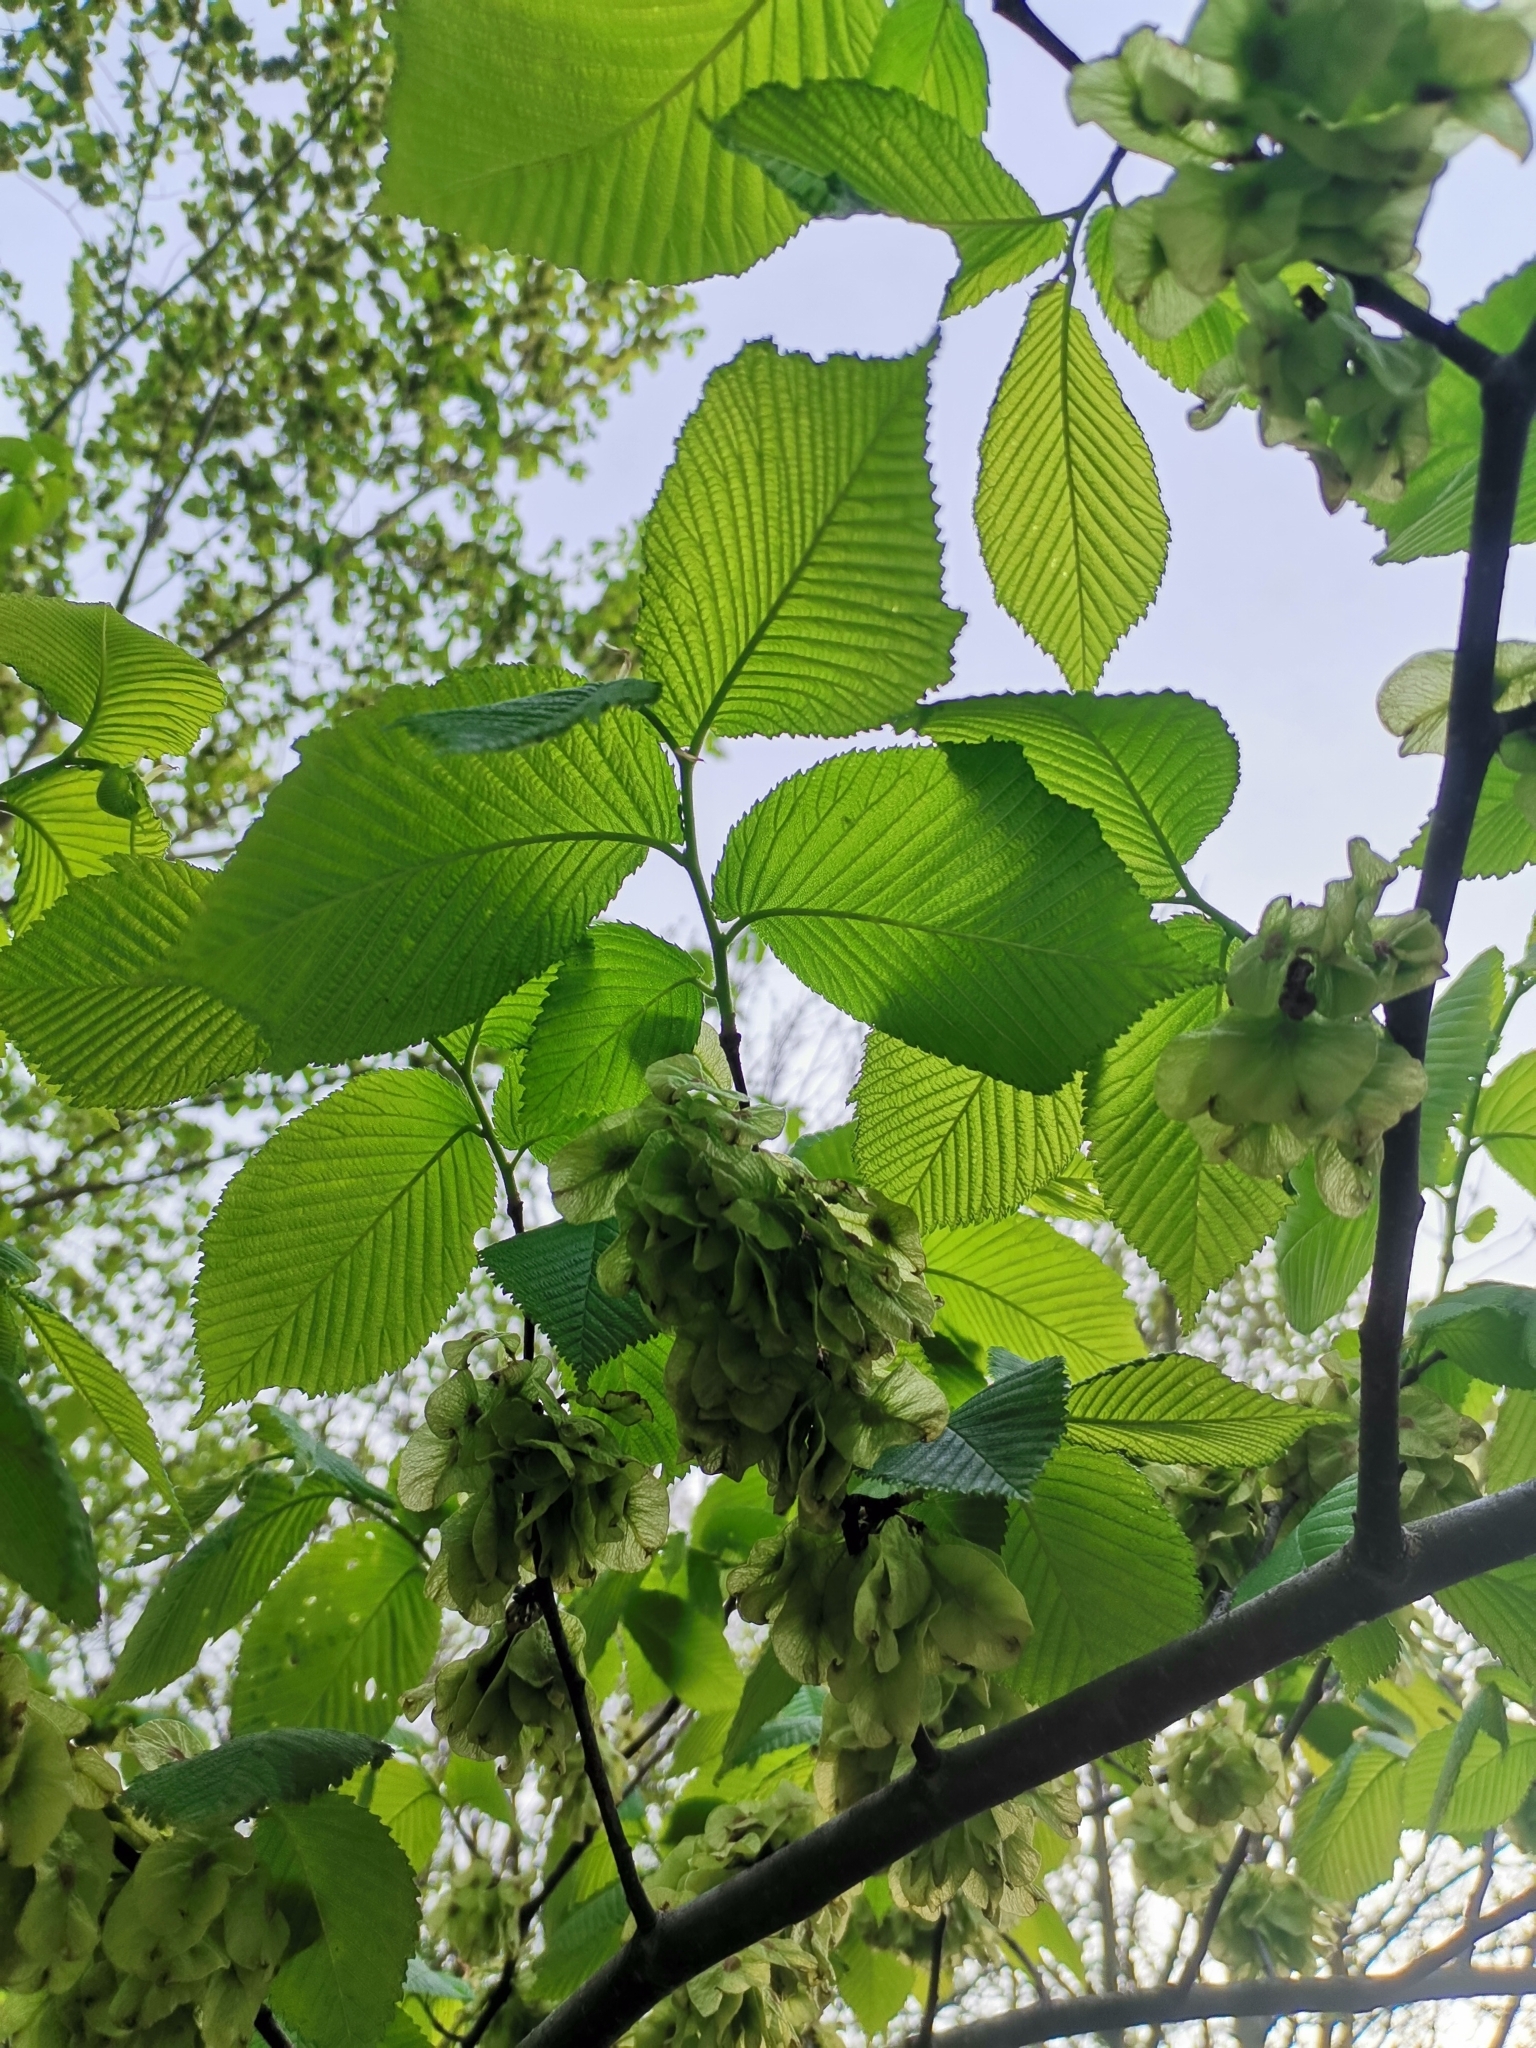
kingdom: Plantae
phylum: Tracheophyta
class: Magnoliopsida
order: Rosales
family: Ulmaceae
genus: Ulmus
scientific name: Ulmus glabra
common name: Wych elm
